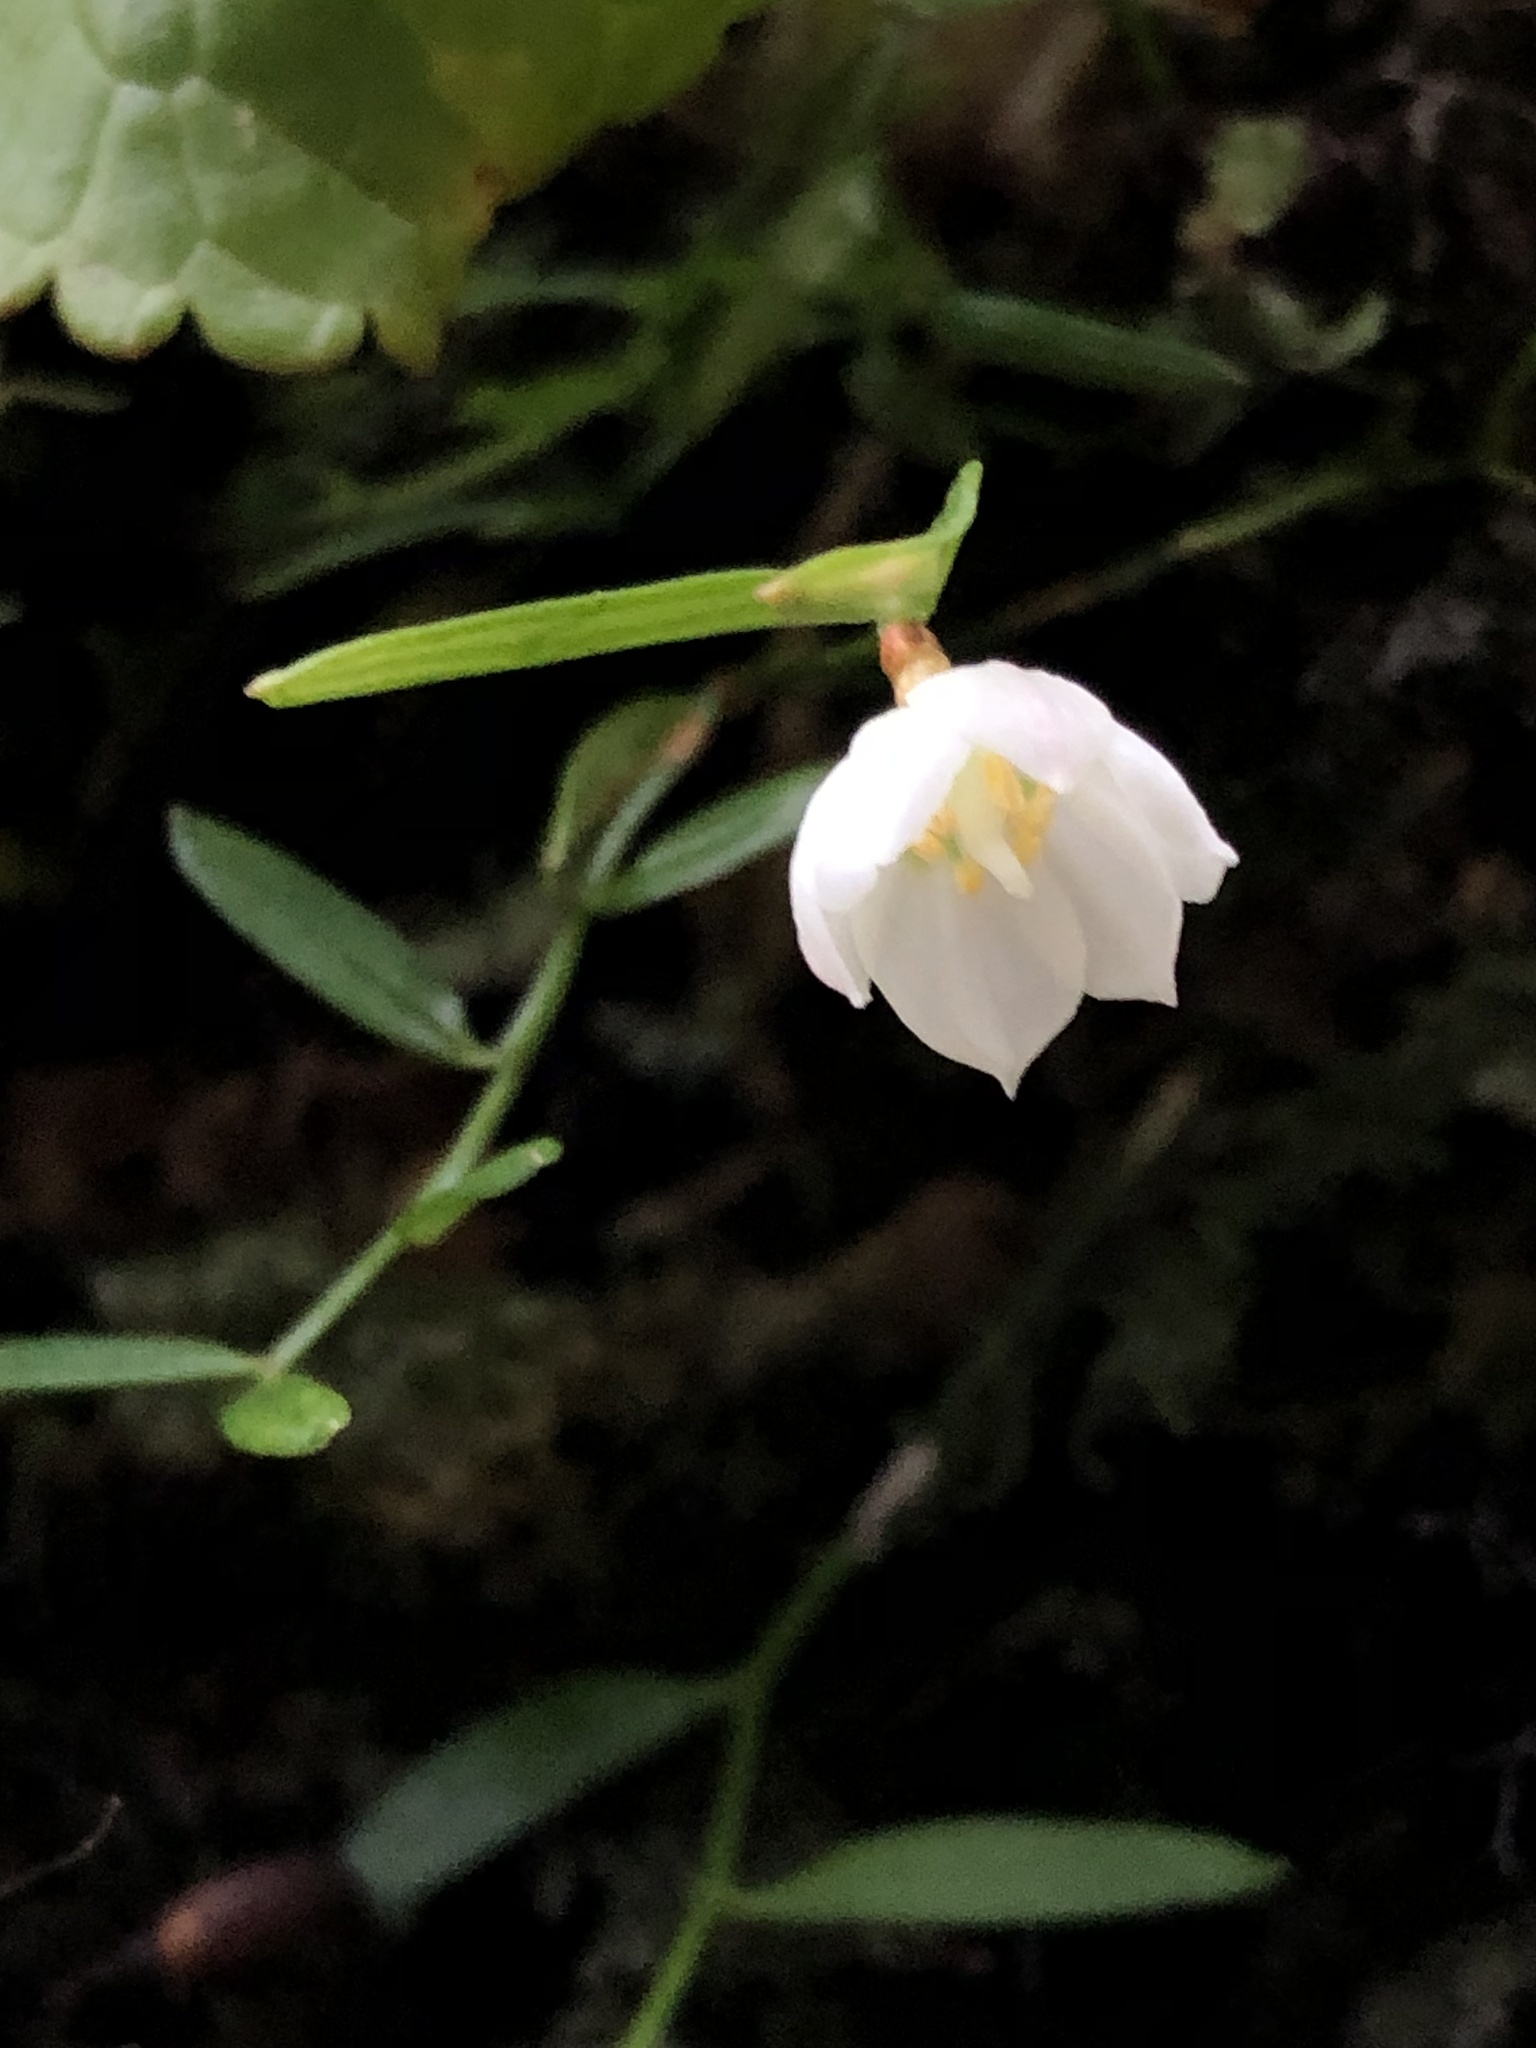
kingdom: Plantae
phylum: Tracheophyta
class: Liliopsida
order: Liliales
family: Alstroemeriaceae
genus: Luzuriaga
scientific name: Luzuriaga parviflora
